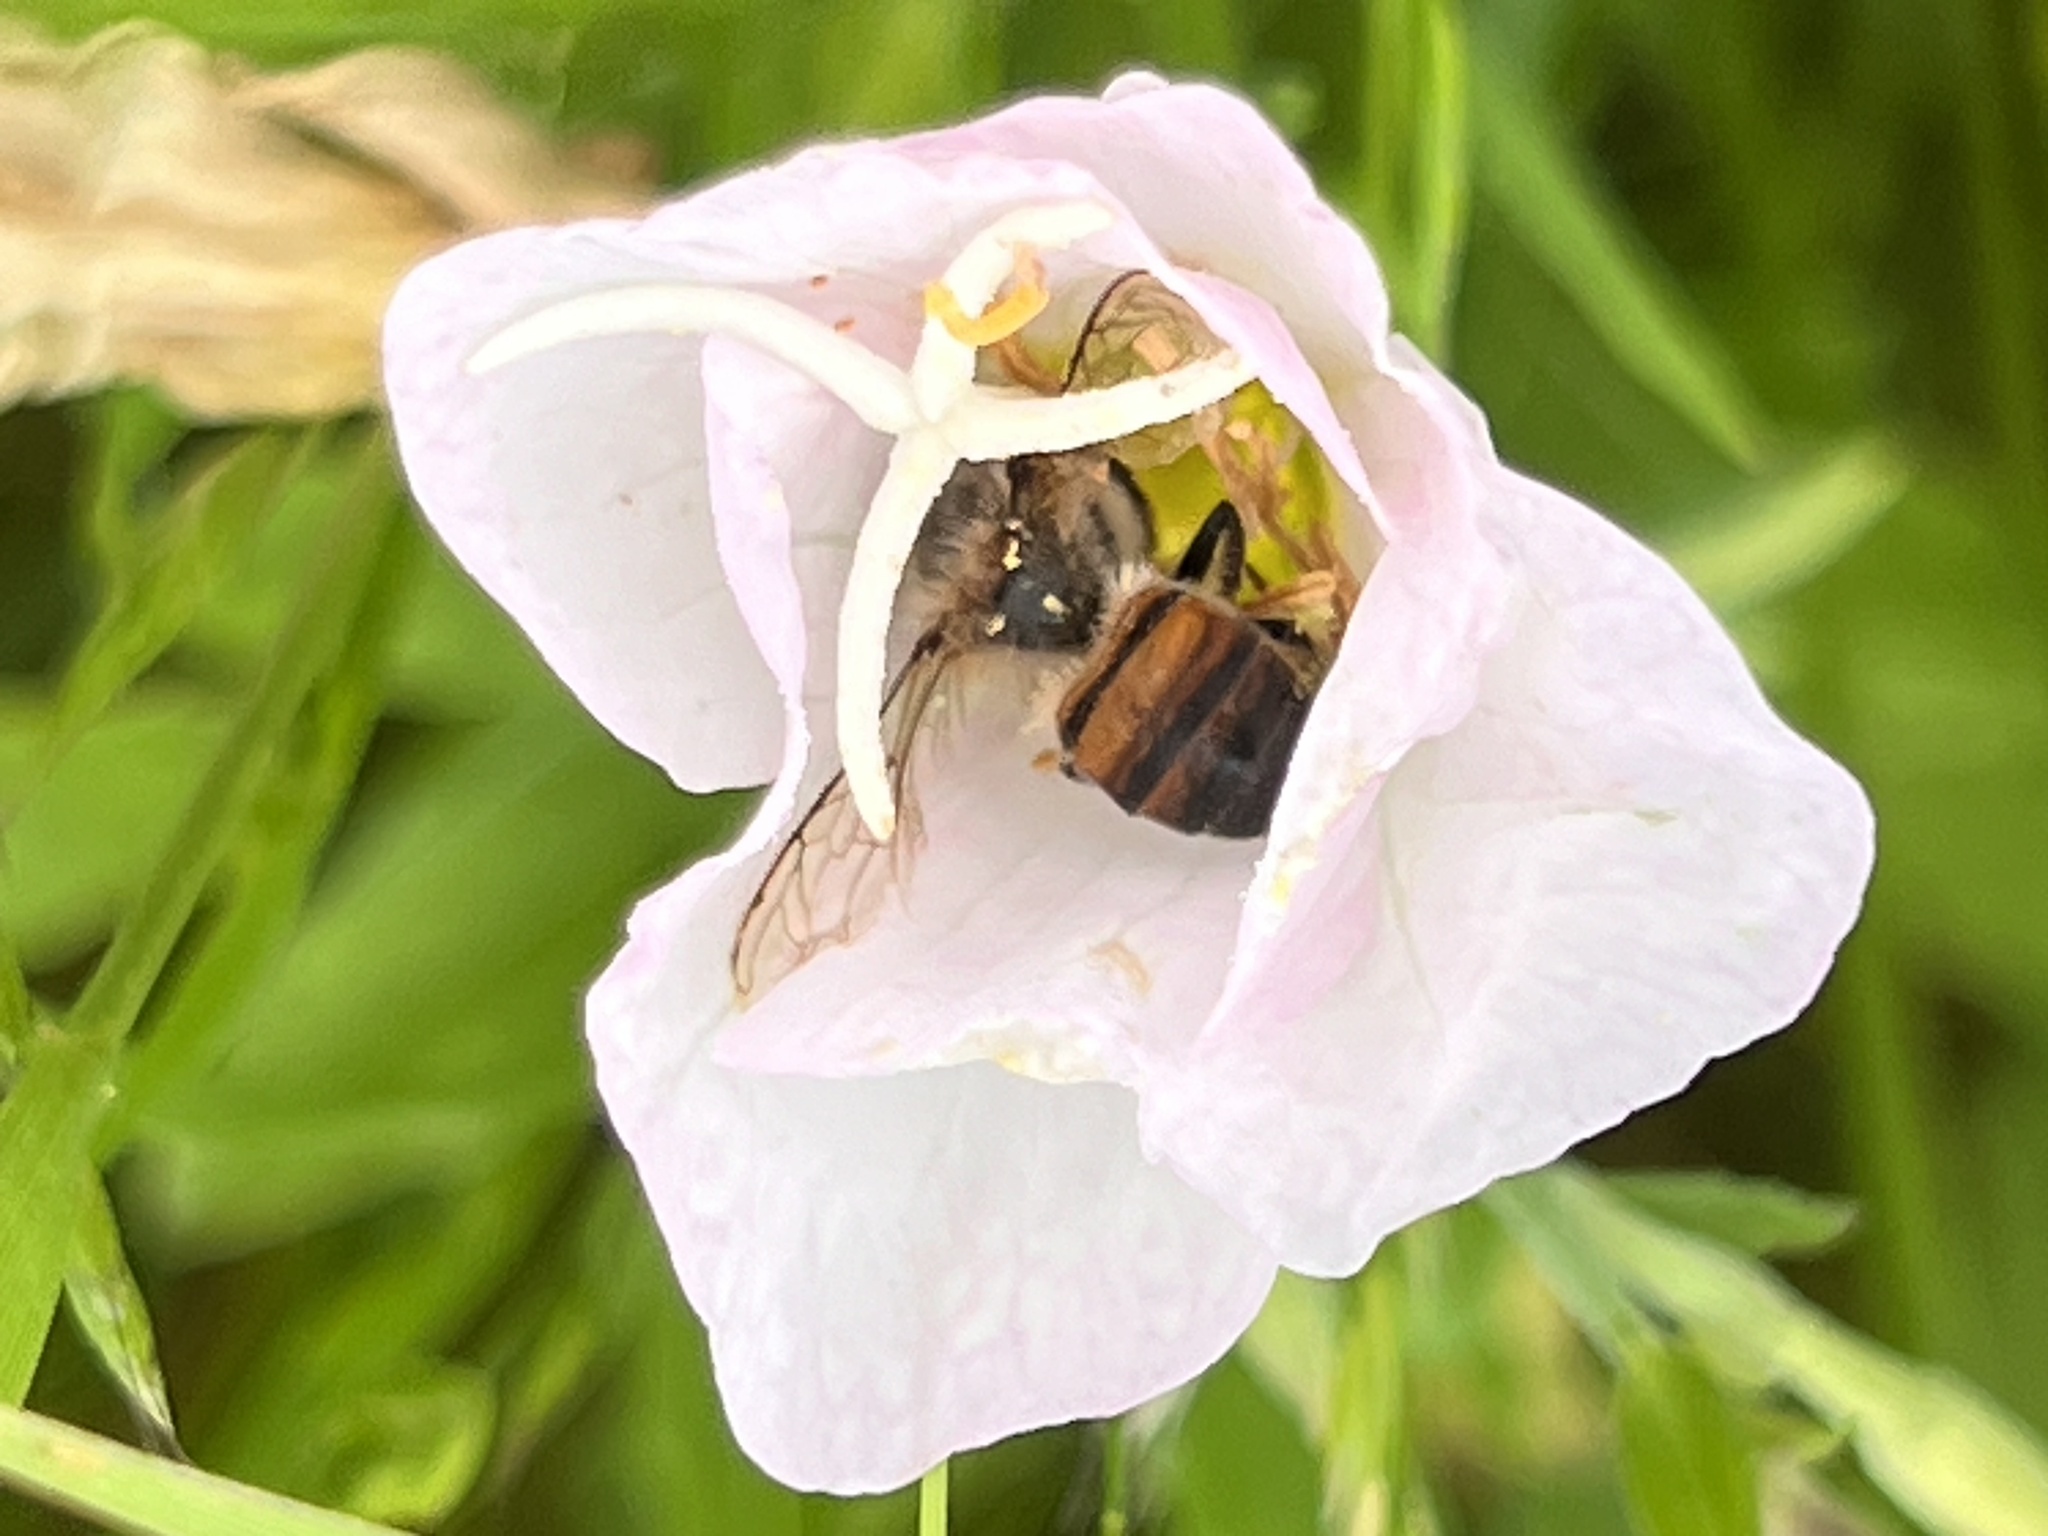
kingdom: Animalia
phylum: Arthropoda
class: Insecta
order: Hymenoptera
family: Apidae
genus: Apis
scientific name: Apis mellifera
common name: Honey bee
